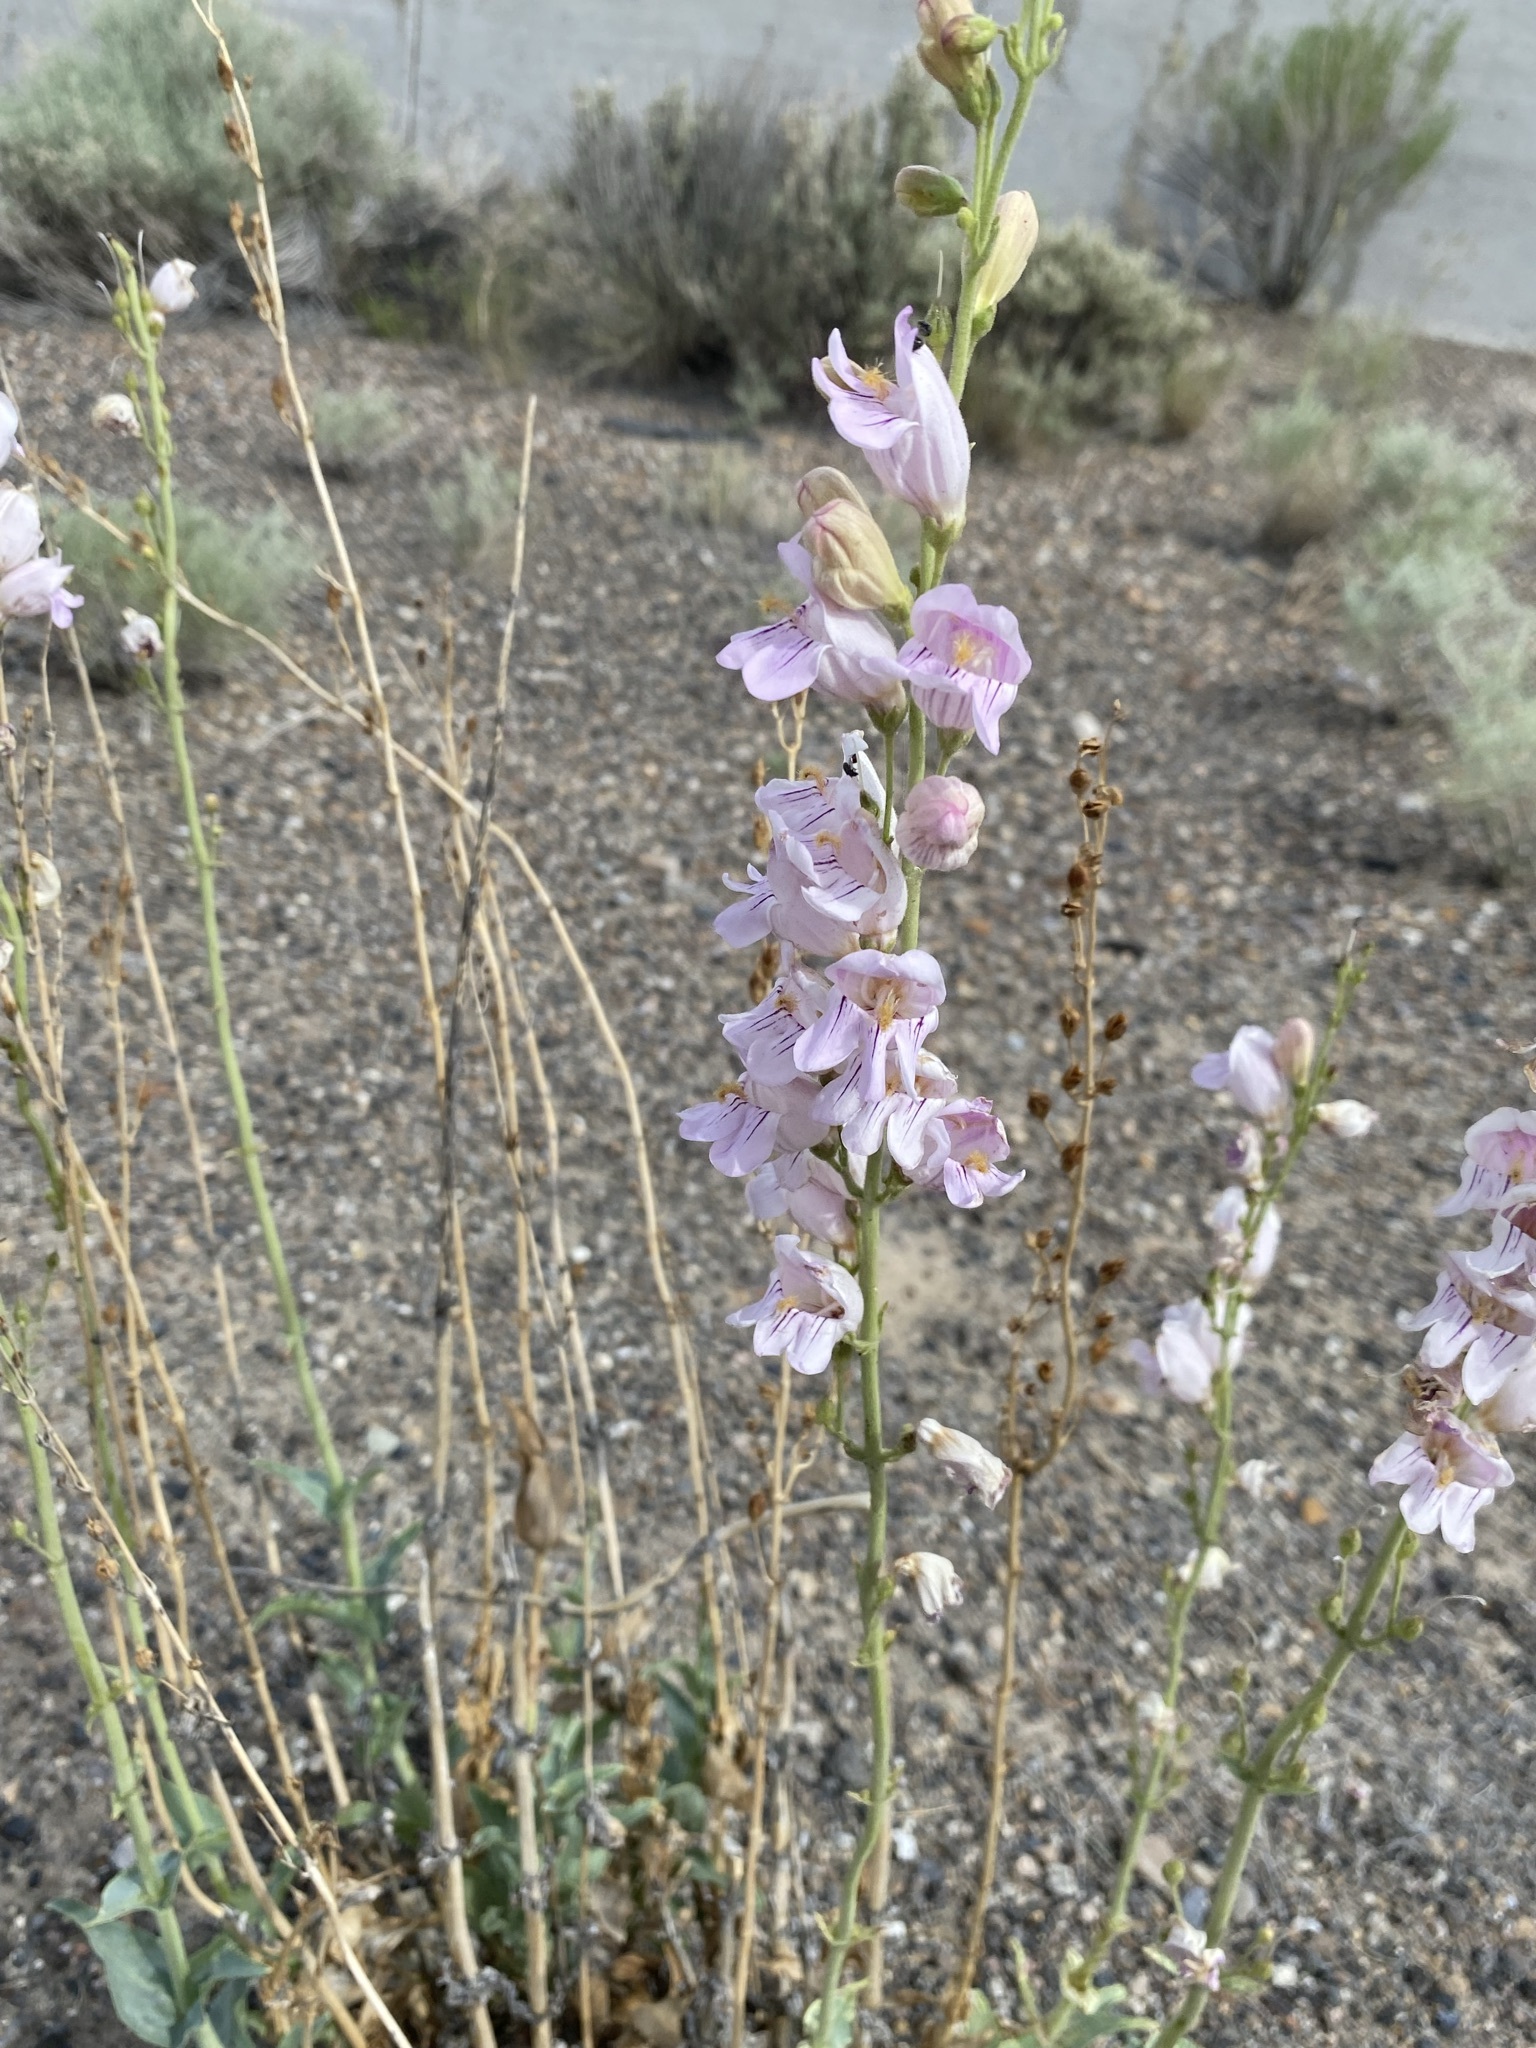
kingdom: Plantae
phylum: Tracheophyta
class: Magnoliopsida
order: Lamiales
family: Plantaginaceae
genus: Penstemon
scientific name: Penstemon palmeri
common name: Palmer penstemon
